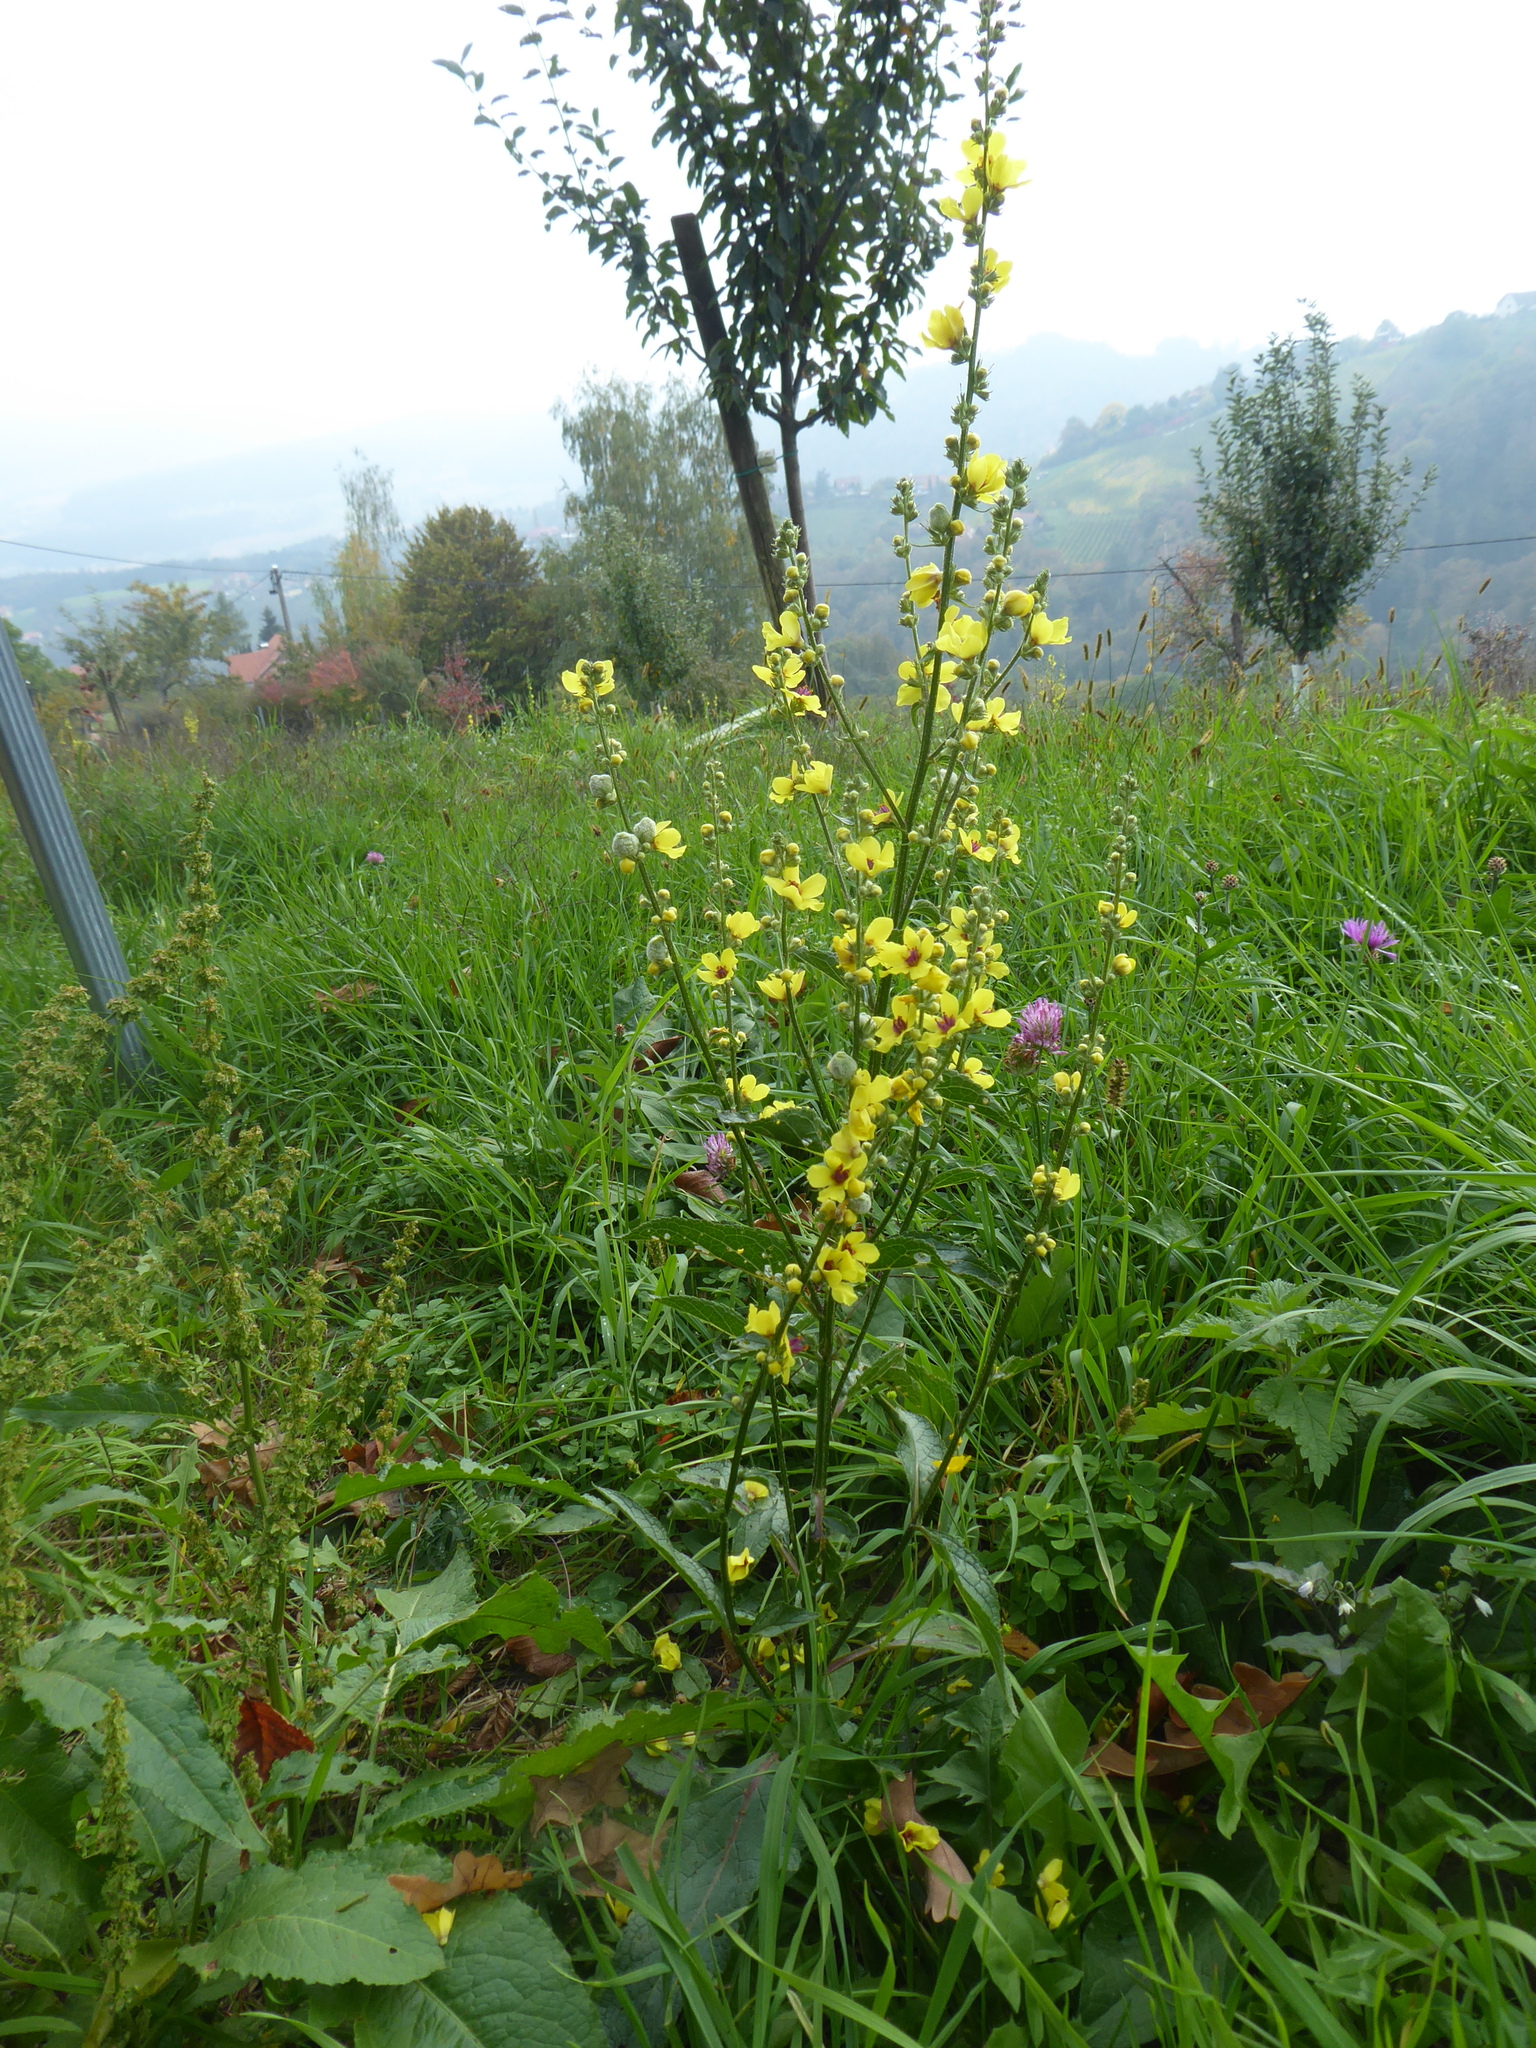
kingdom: Plantae
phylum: Tracheophyta
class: Magnoliopsida
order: Lamiales
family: Scrophulariaceae
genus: Verbascum
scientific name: Verbascum chaixii
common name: Nettle-leaved mullein
